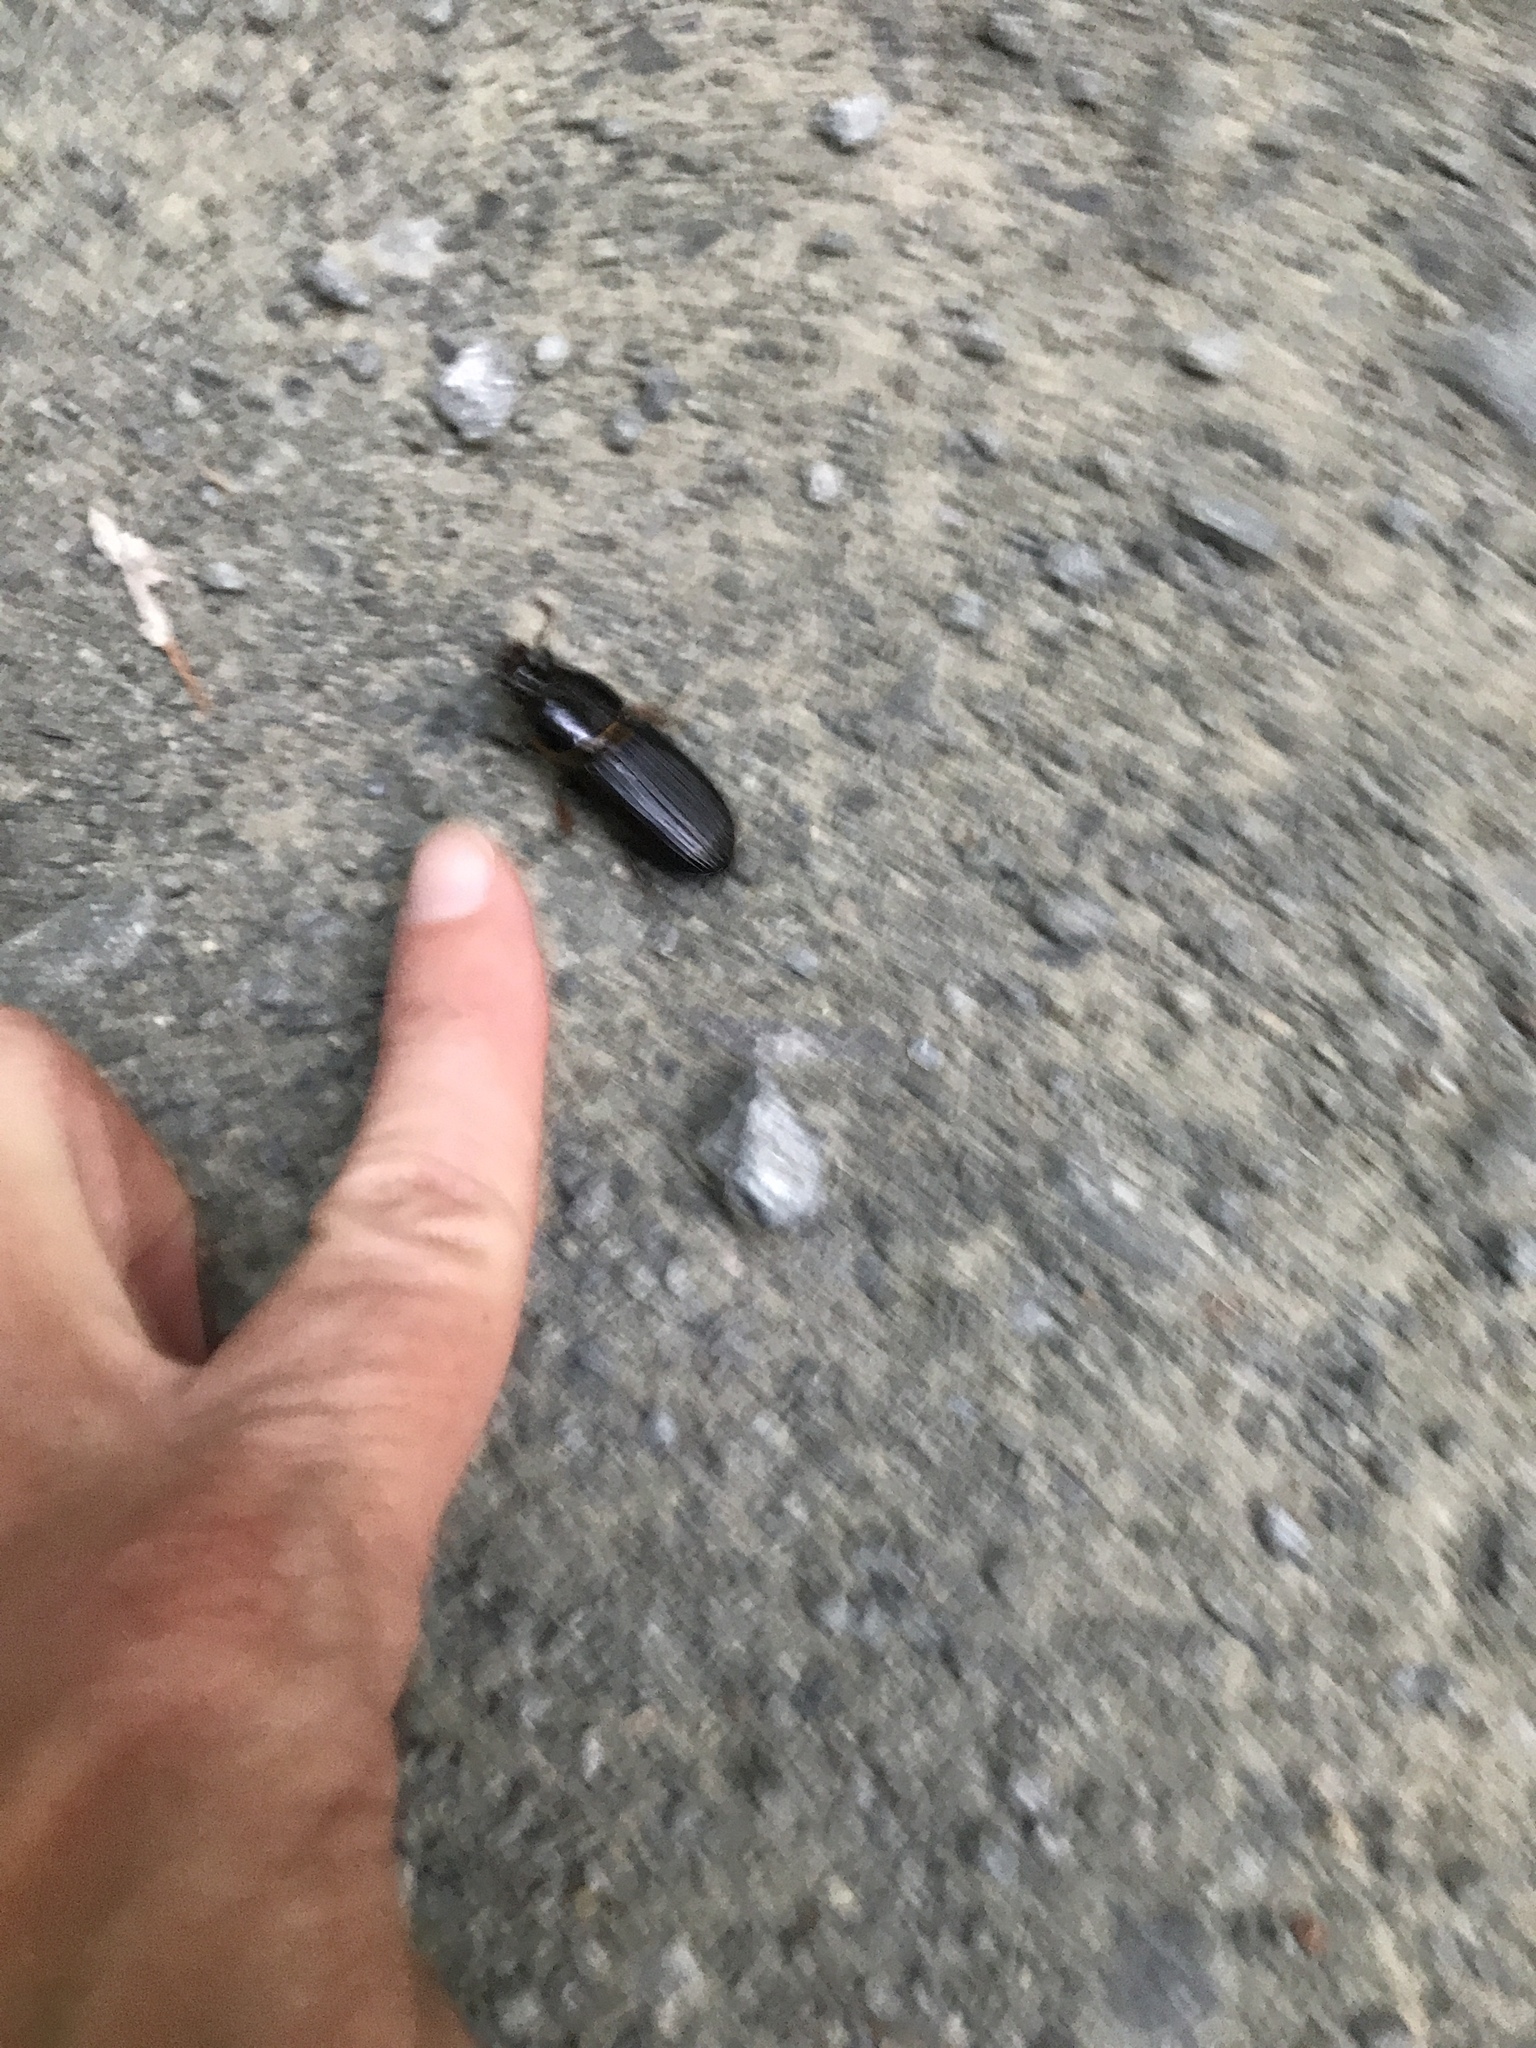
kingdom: Animalia
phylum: Arthropoda
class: Insecta
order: Coleoptera
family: Passalidae
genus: Odontotaenius
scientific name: Odontotaenius disjunctus
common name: Patent leather beetle
